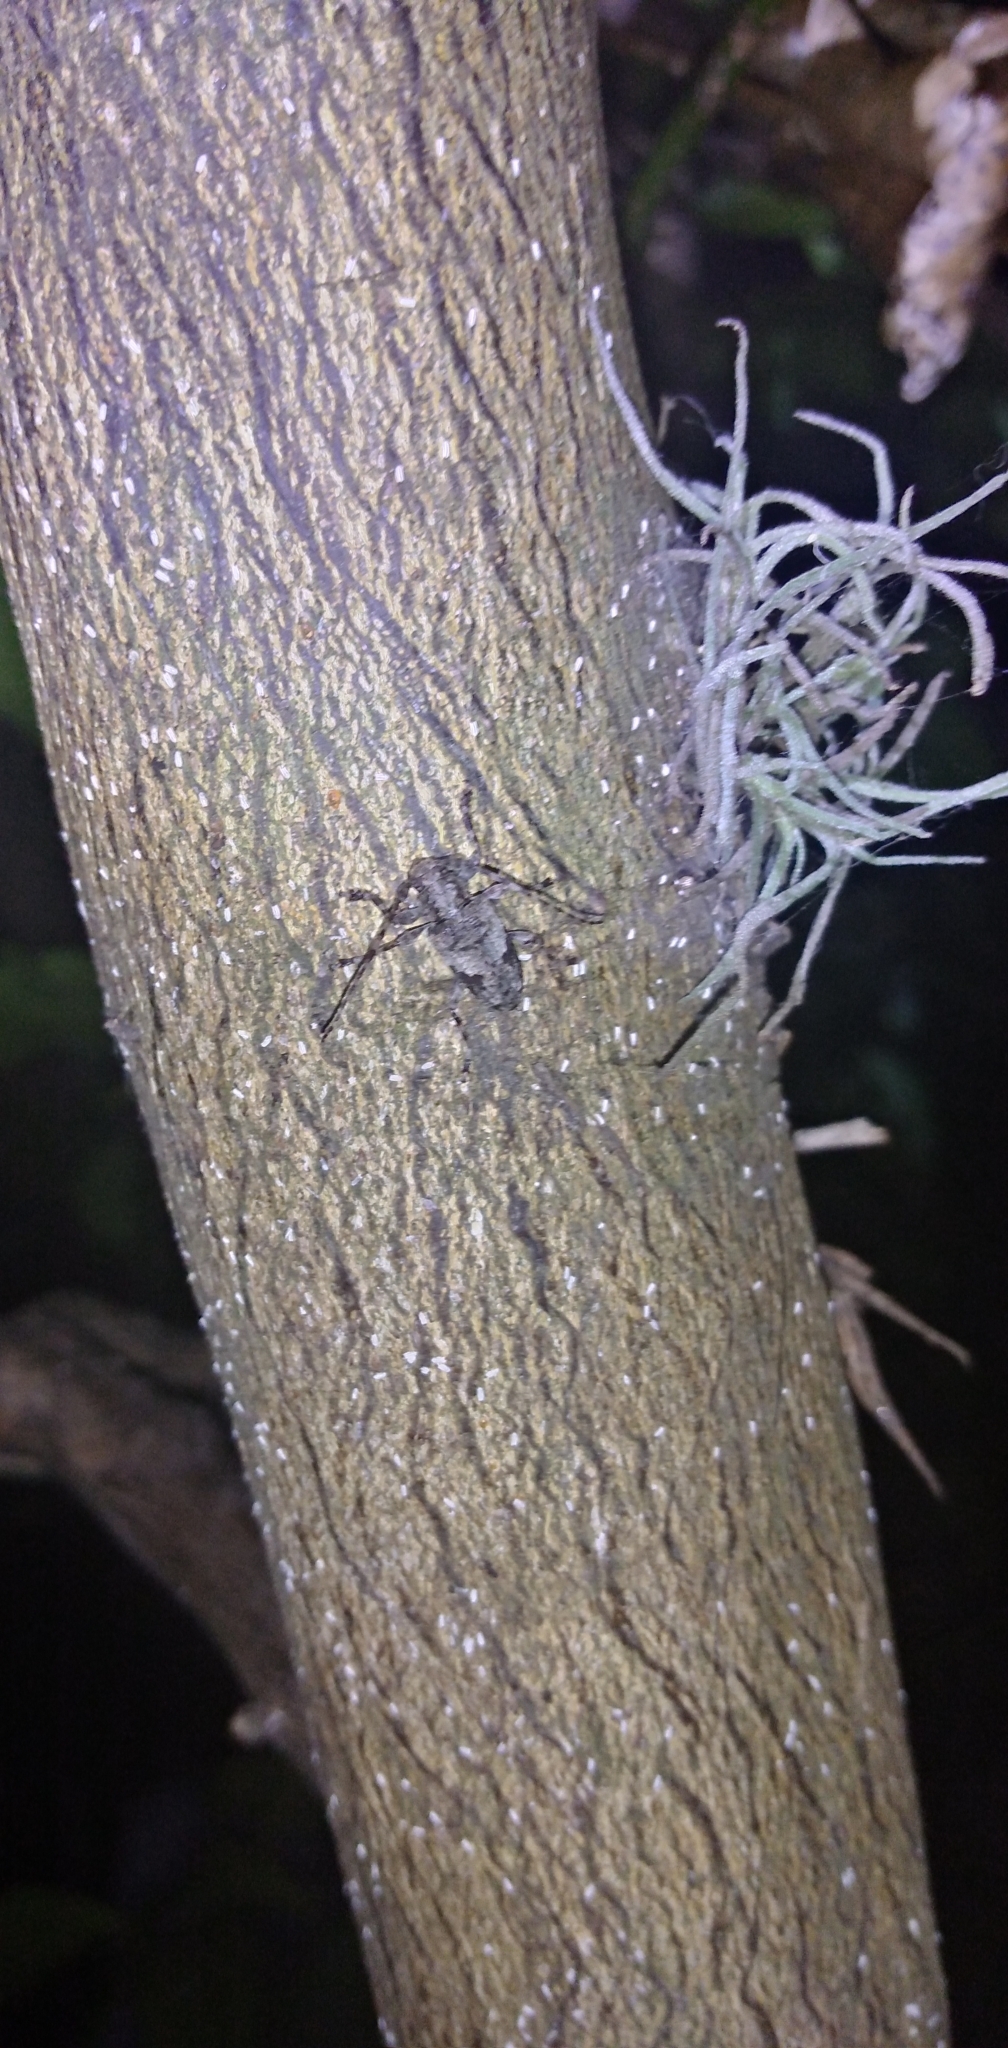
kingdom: Animalia
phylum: Arthropoda
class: Insecta
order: Coleoptera
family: Cerambycidae
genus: Psapharochrus
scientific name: Psapharochrus jaspideus
